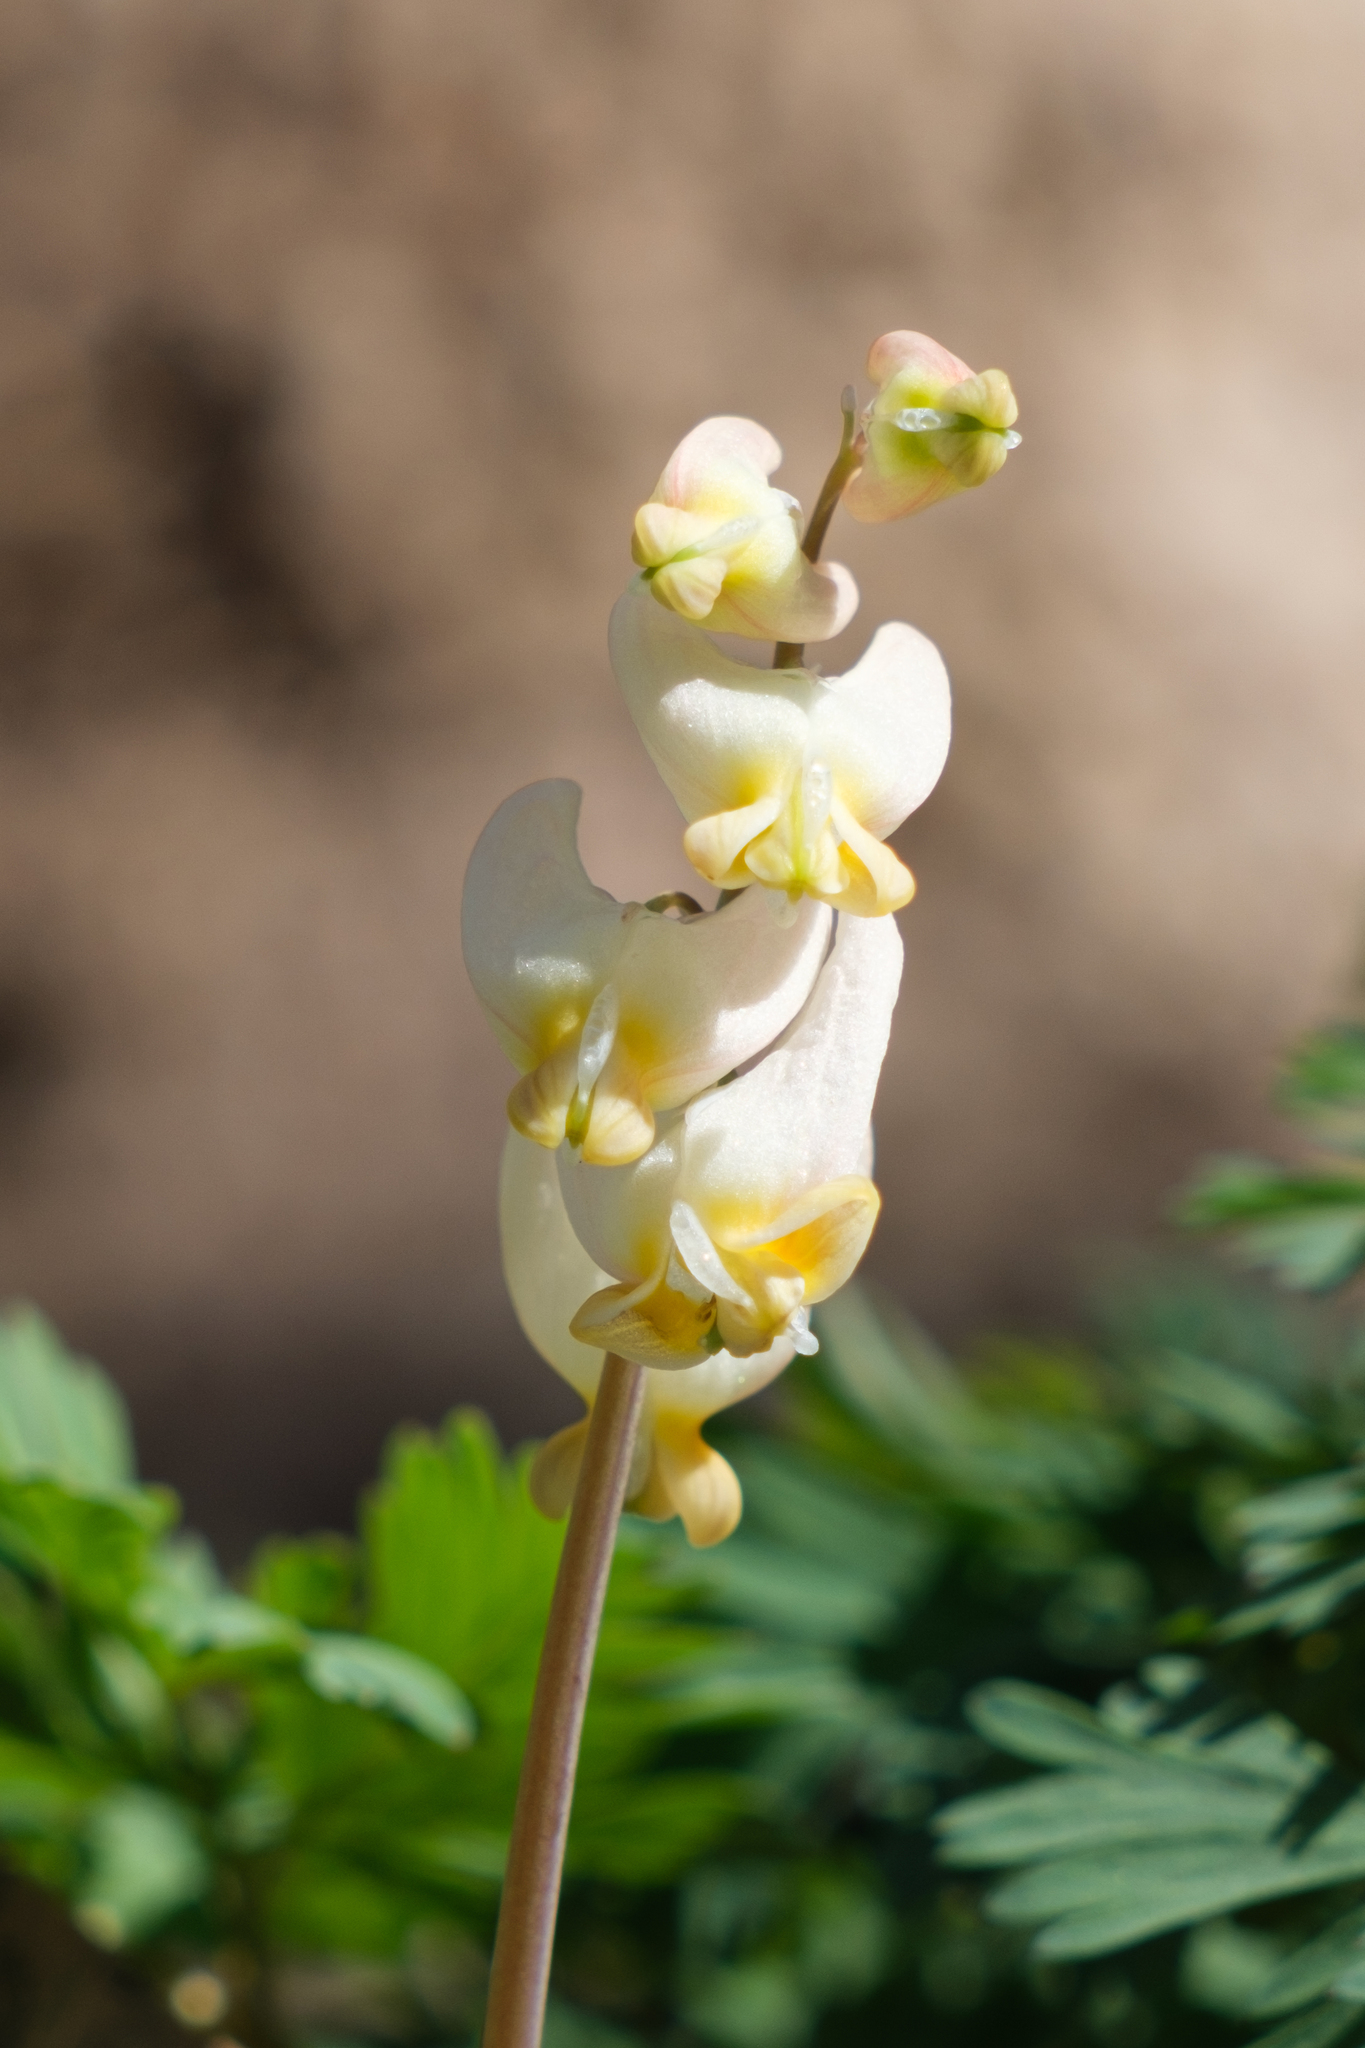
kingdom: Plantae
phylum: Tracheophyta
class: Magnoliopsida
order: Ranunculales
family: Papaveraceae
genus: Dicentra
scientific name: Dicentra cucullaria
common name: Dutchman's breeches
